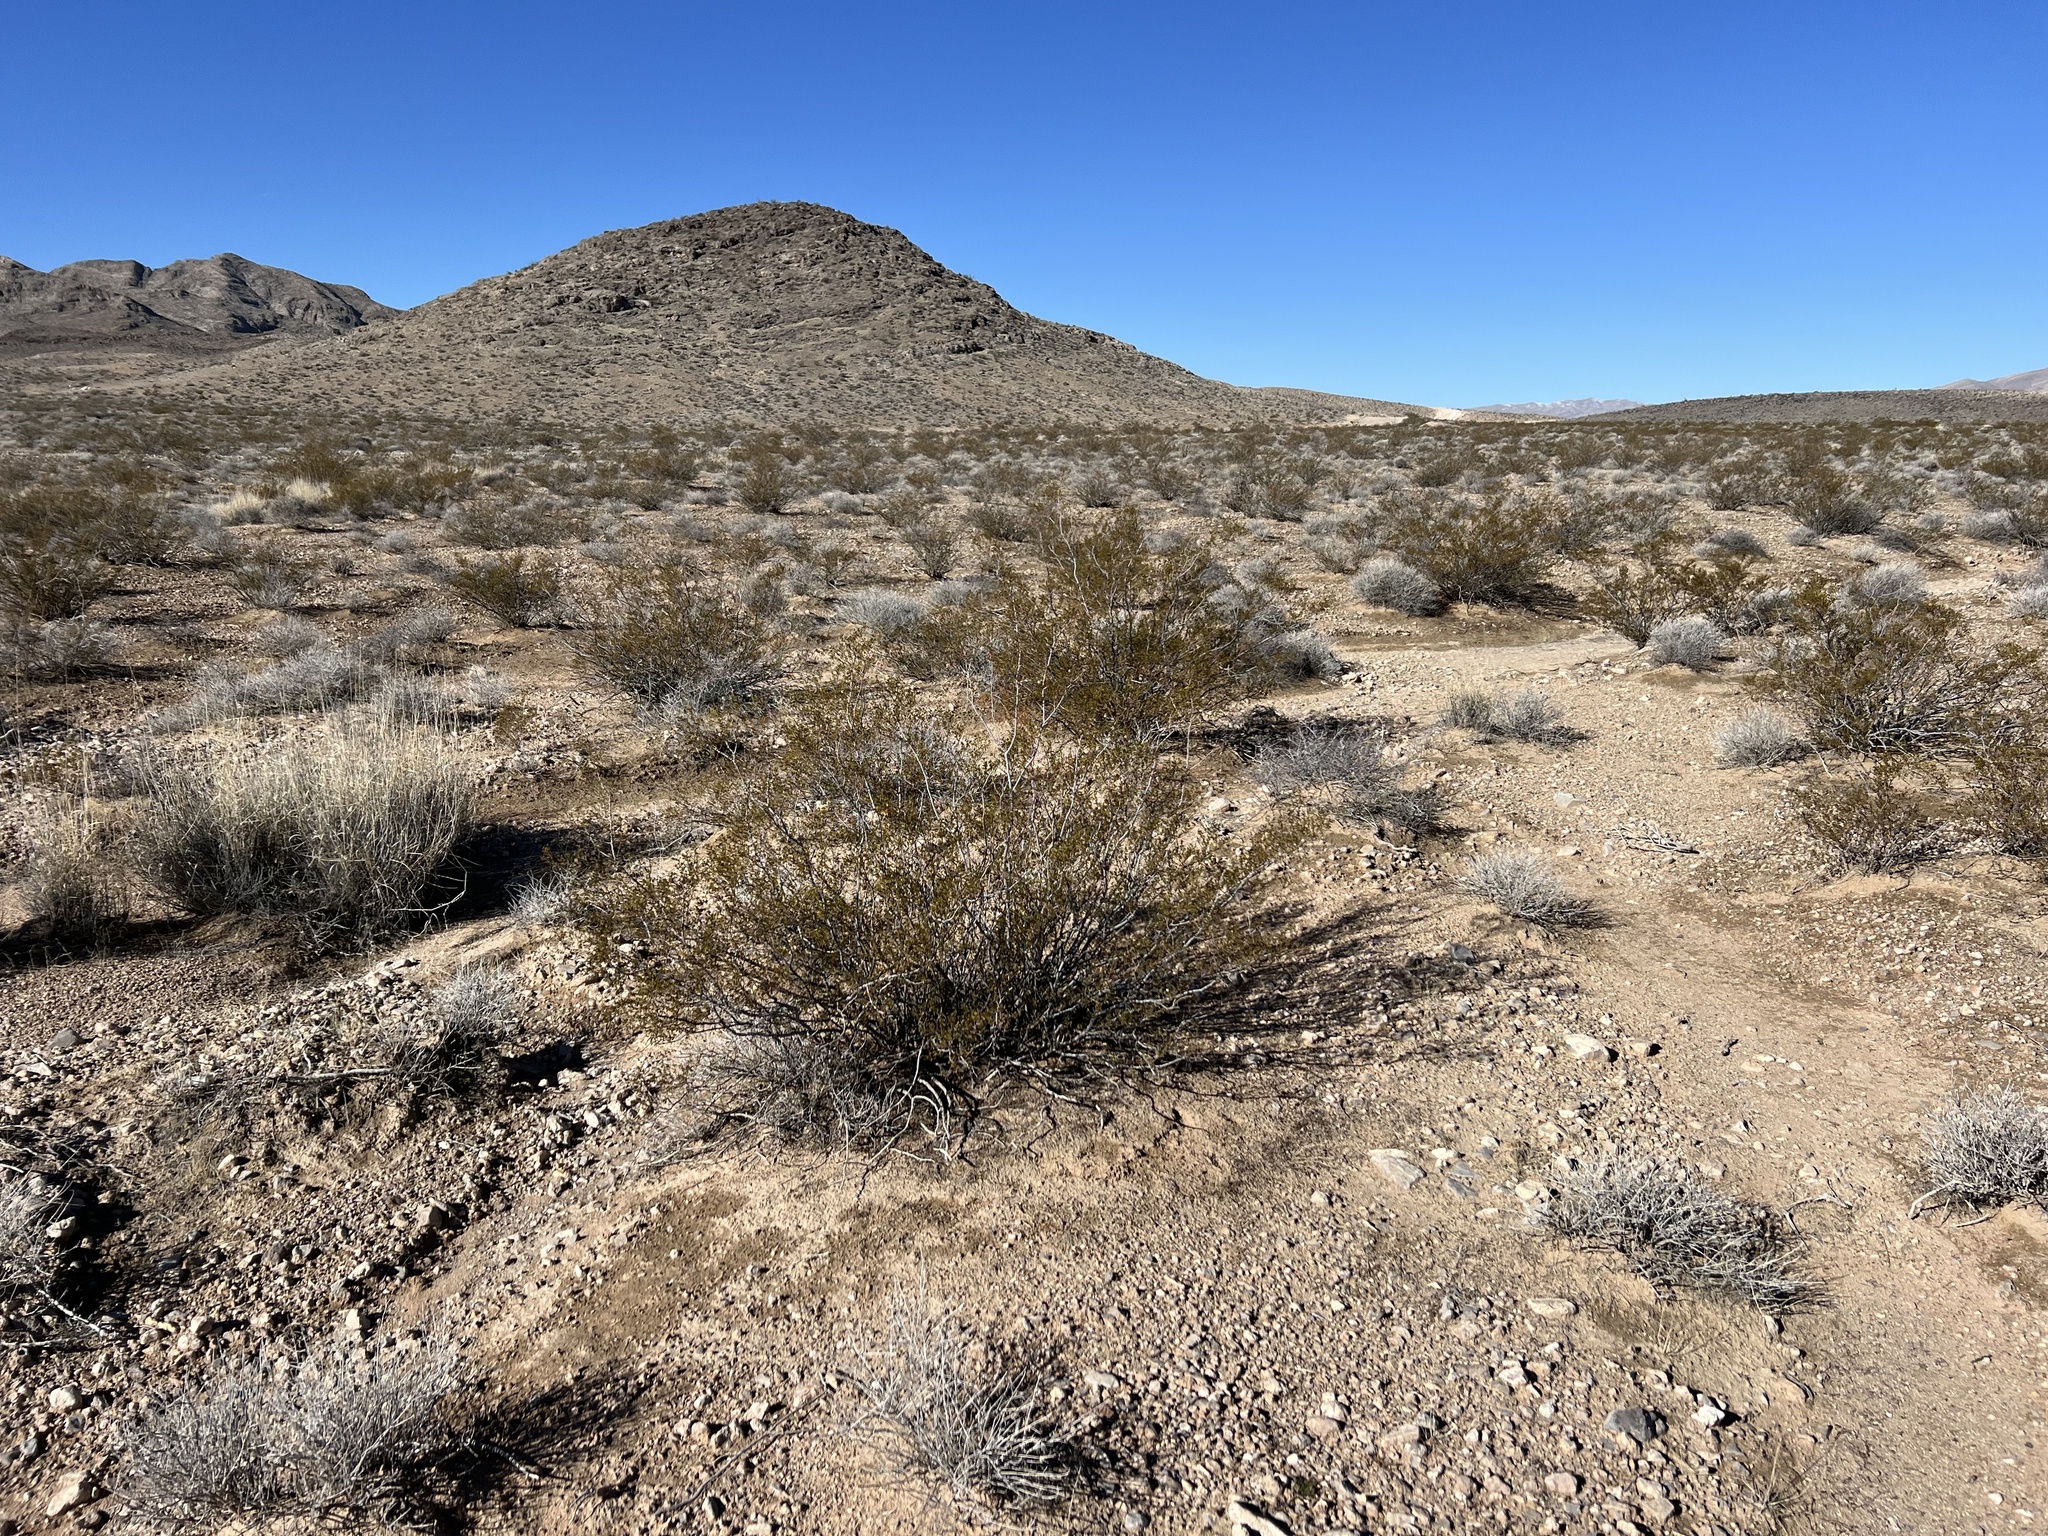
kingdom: Plantae
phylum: Tracheophyta
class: Magnoliopsida
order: Zygophyllales
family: Zygophyllaceae
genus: Larrea
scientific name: Larrea tridentata
